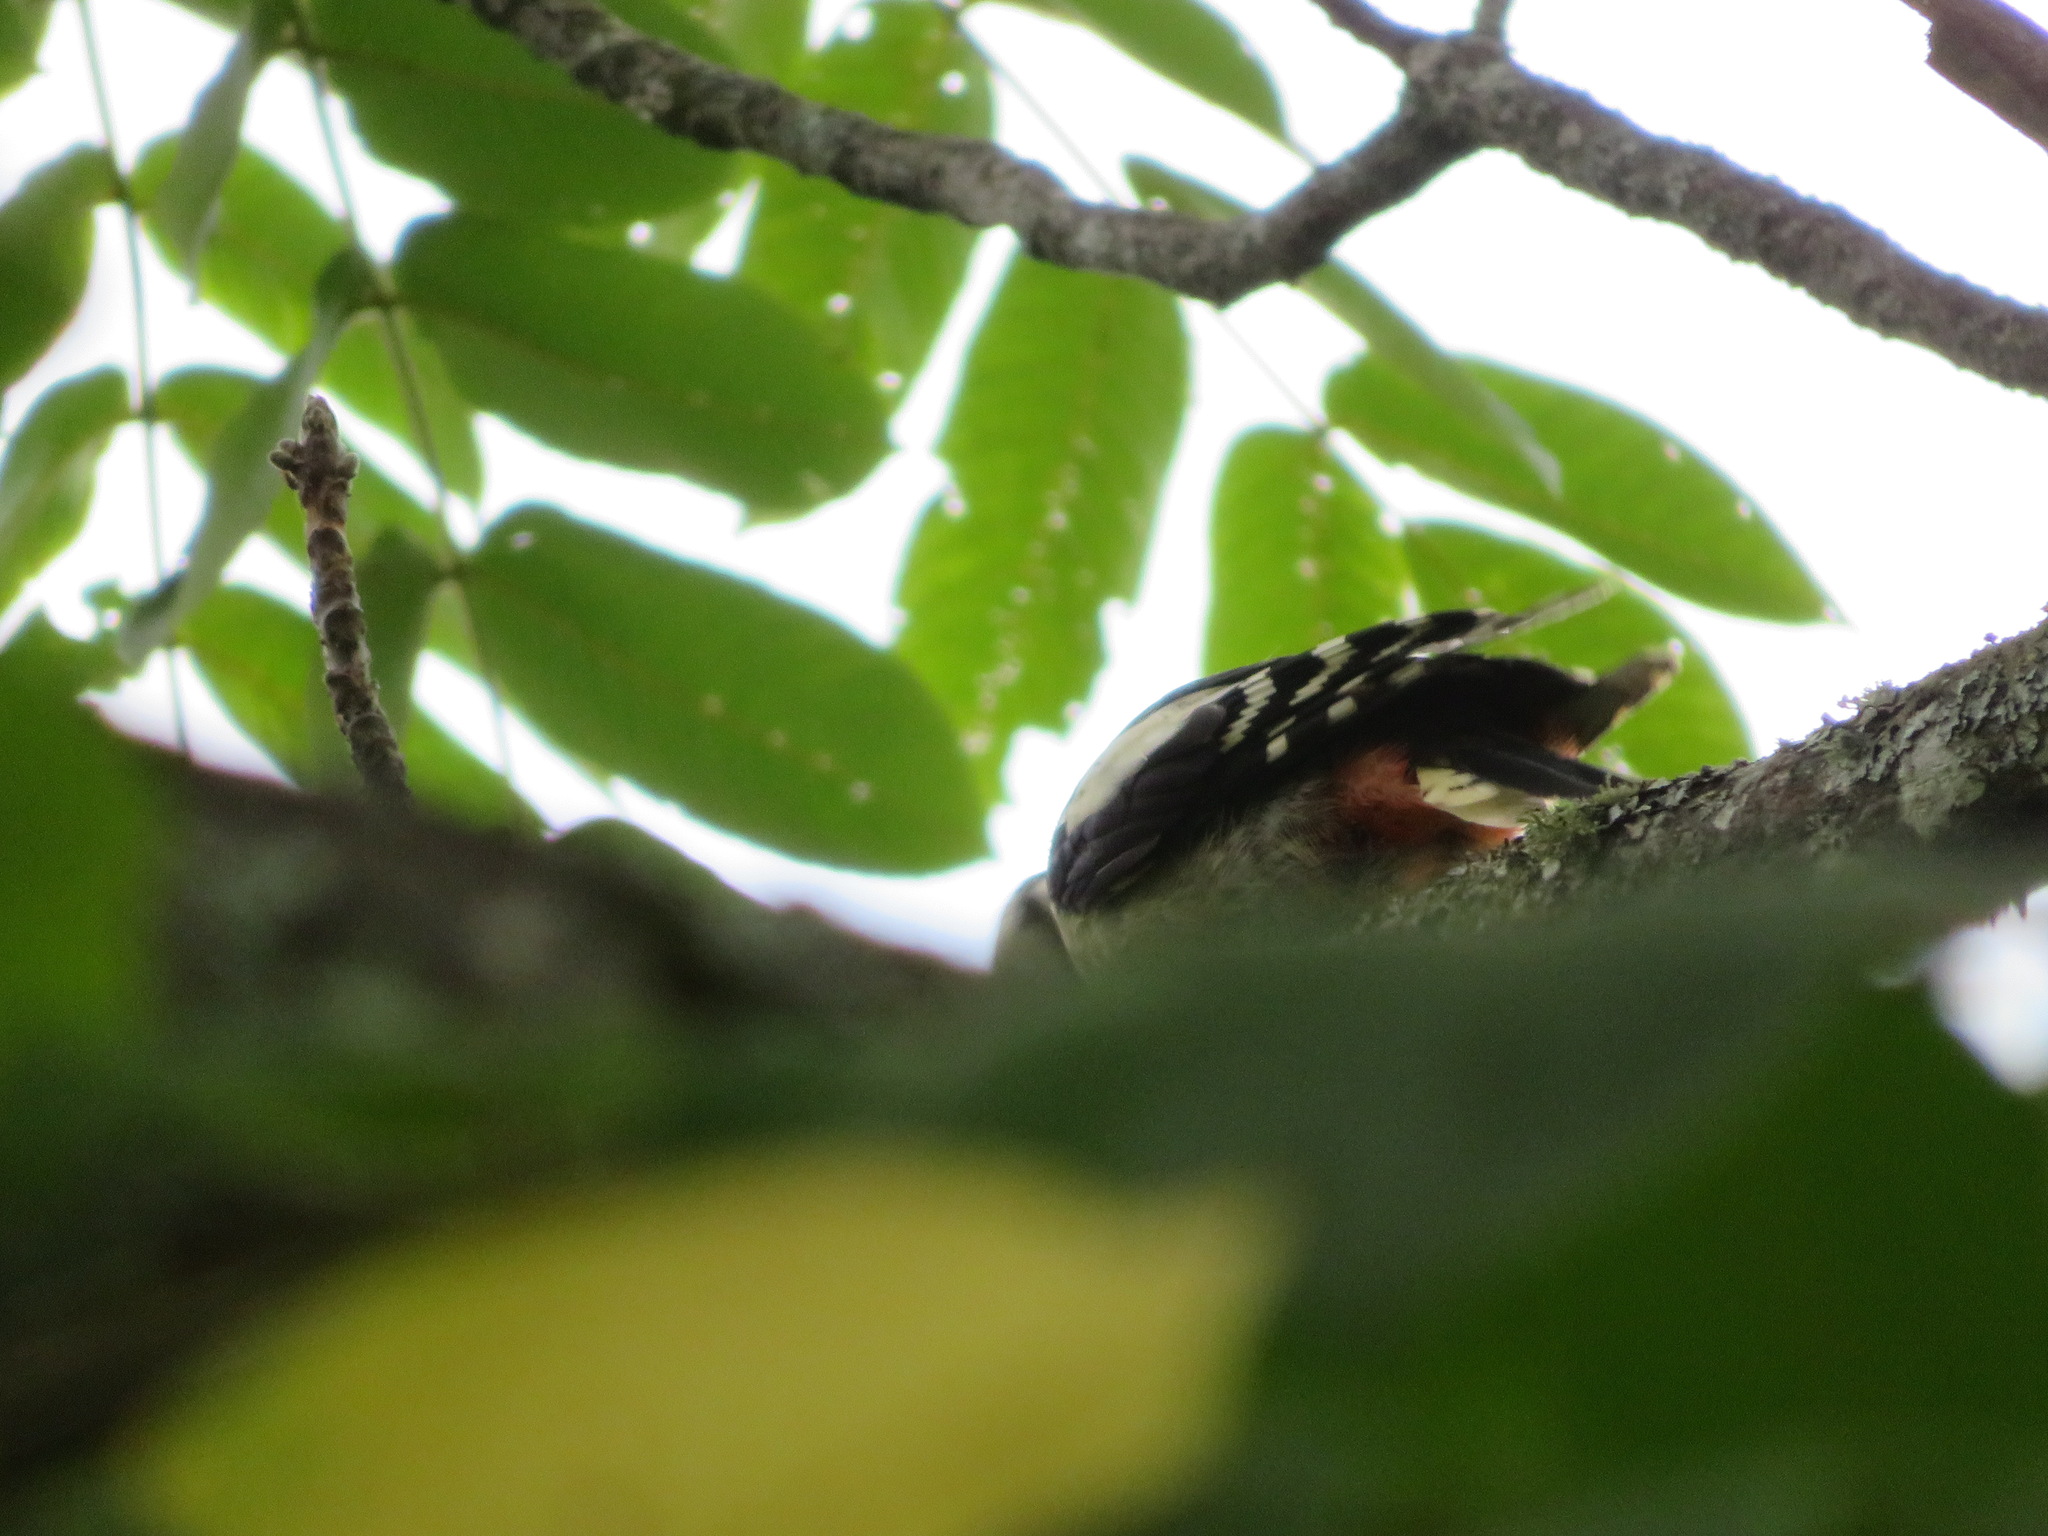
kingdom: Animalia
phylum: Chordata
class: Aves
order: Piciformes
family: Picidae
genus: Dendrocopos
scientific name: Dendrocopos major
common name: Great spotted woodpecker
